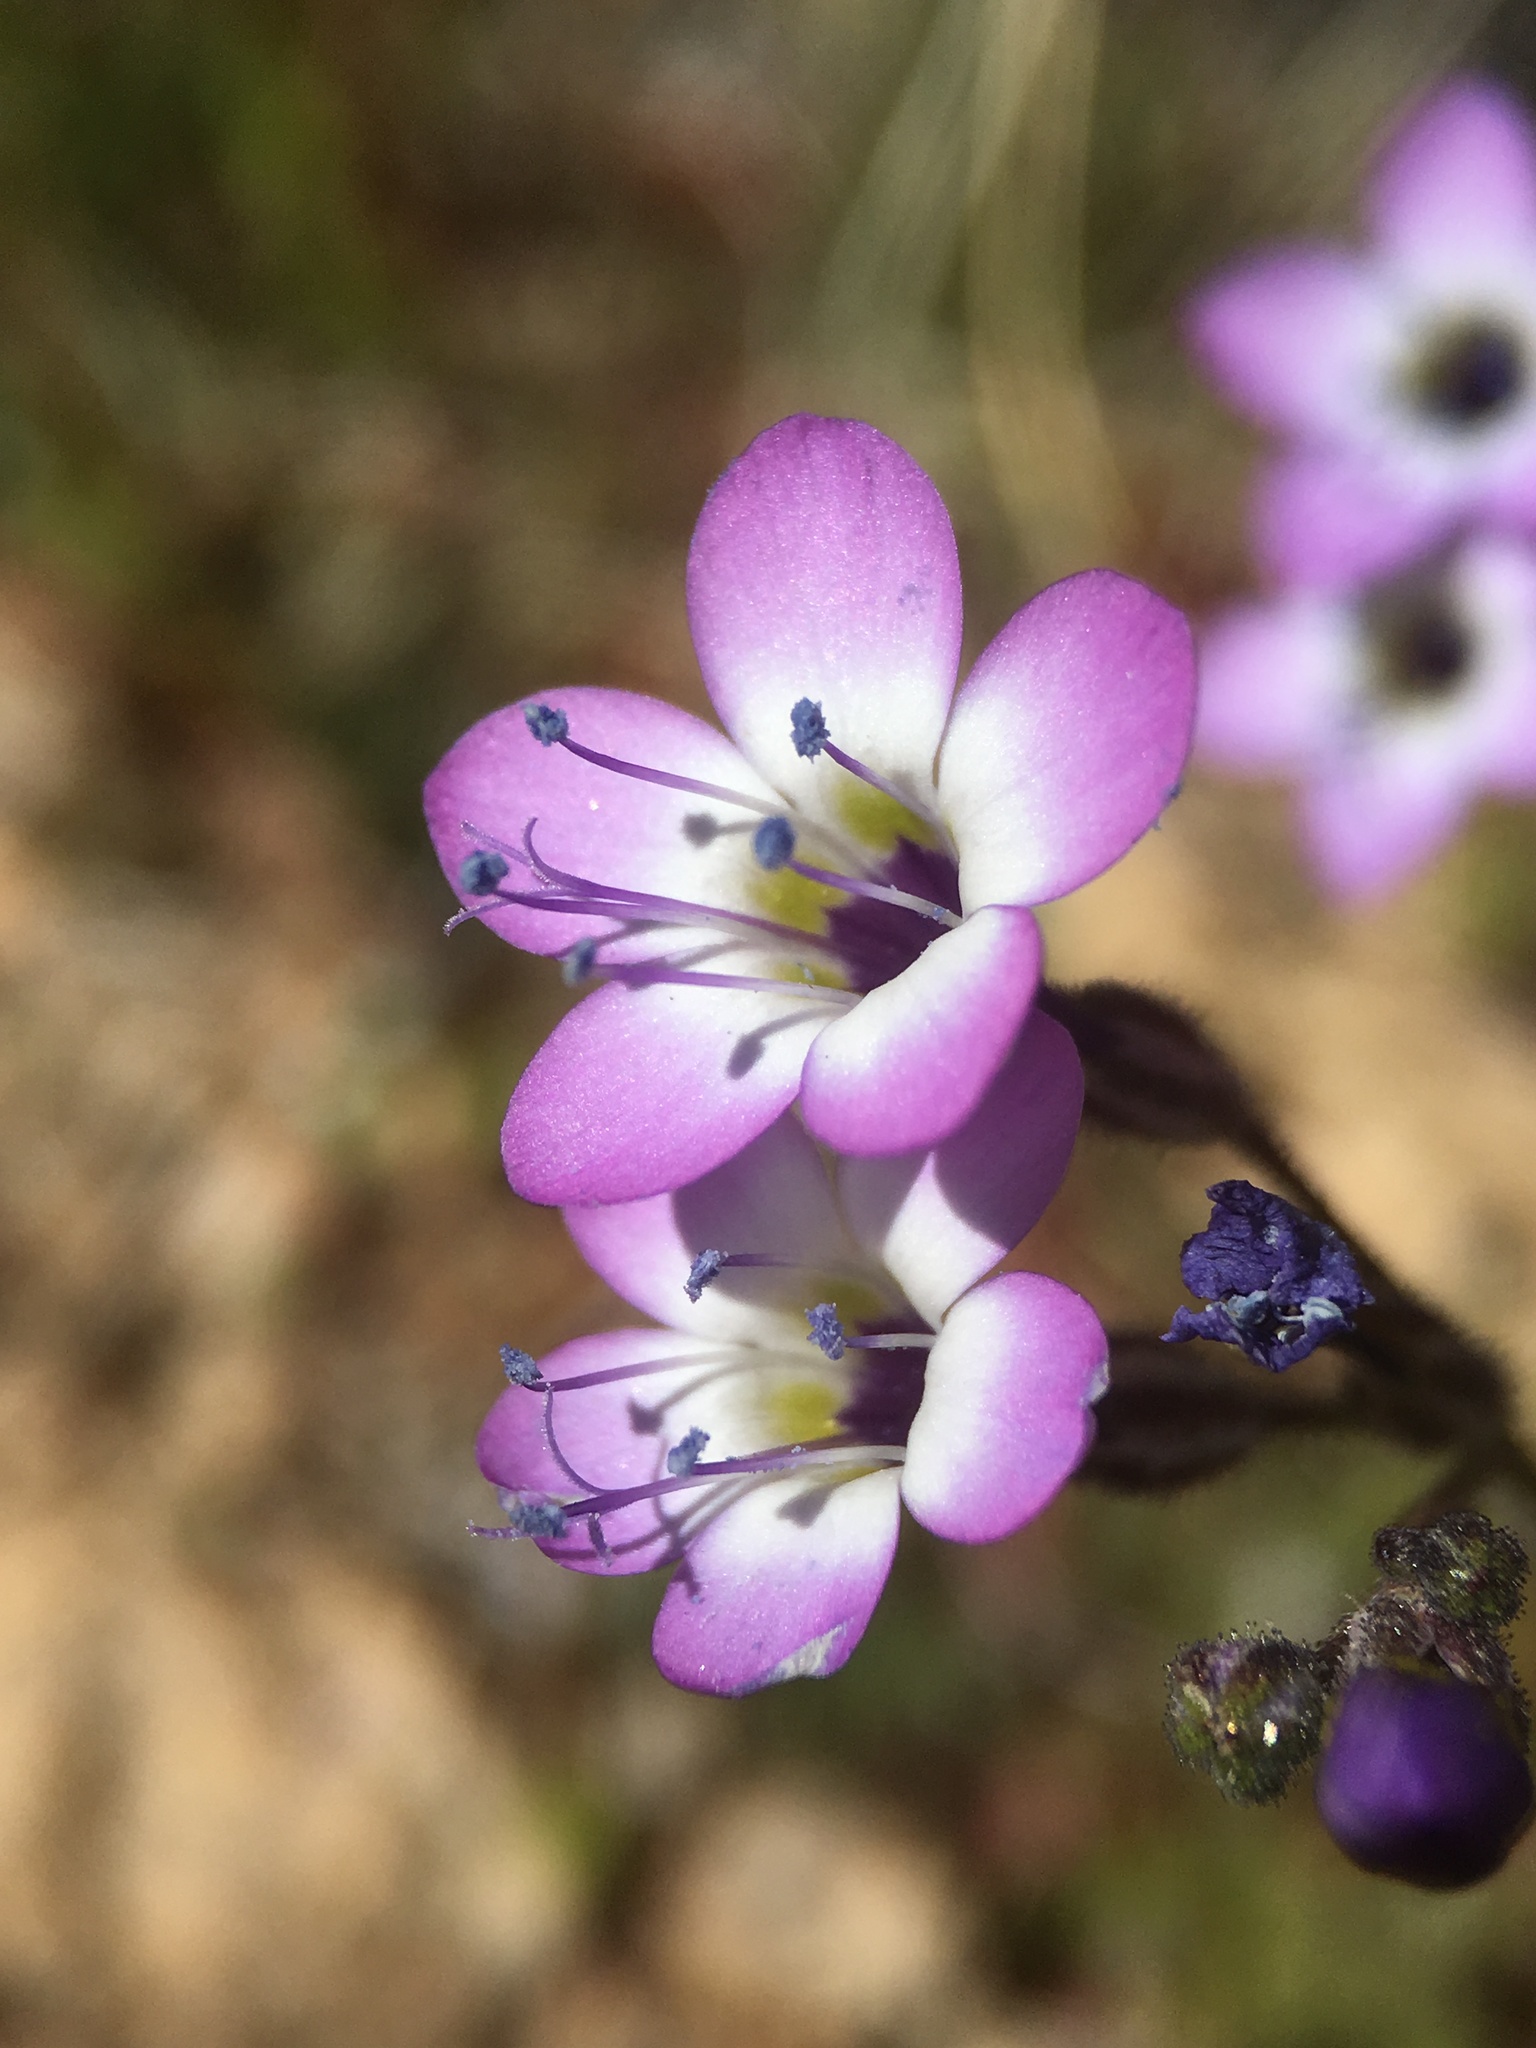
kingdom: Plantae
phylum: Tracheophyta
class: Magnoliopsida
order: Ericales
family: Polemoniaceae
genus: Gilia
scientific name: Gilia brecciarum
